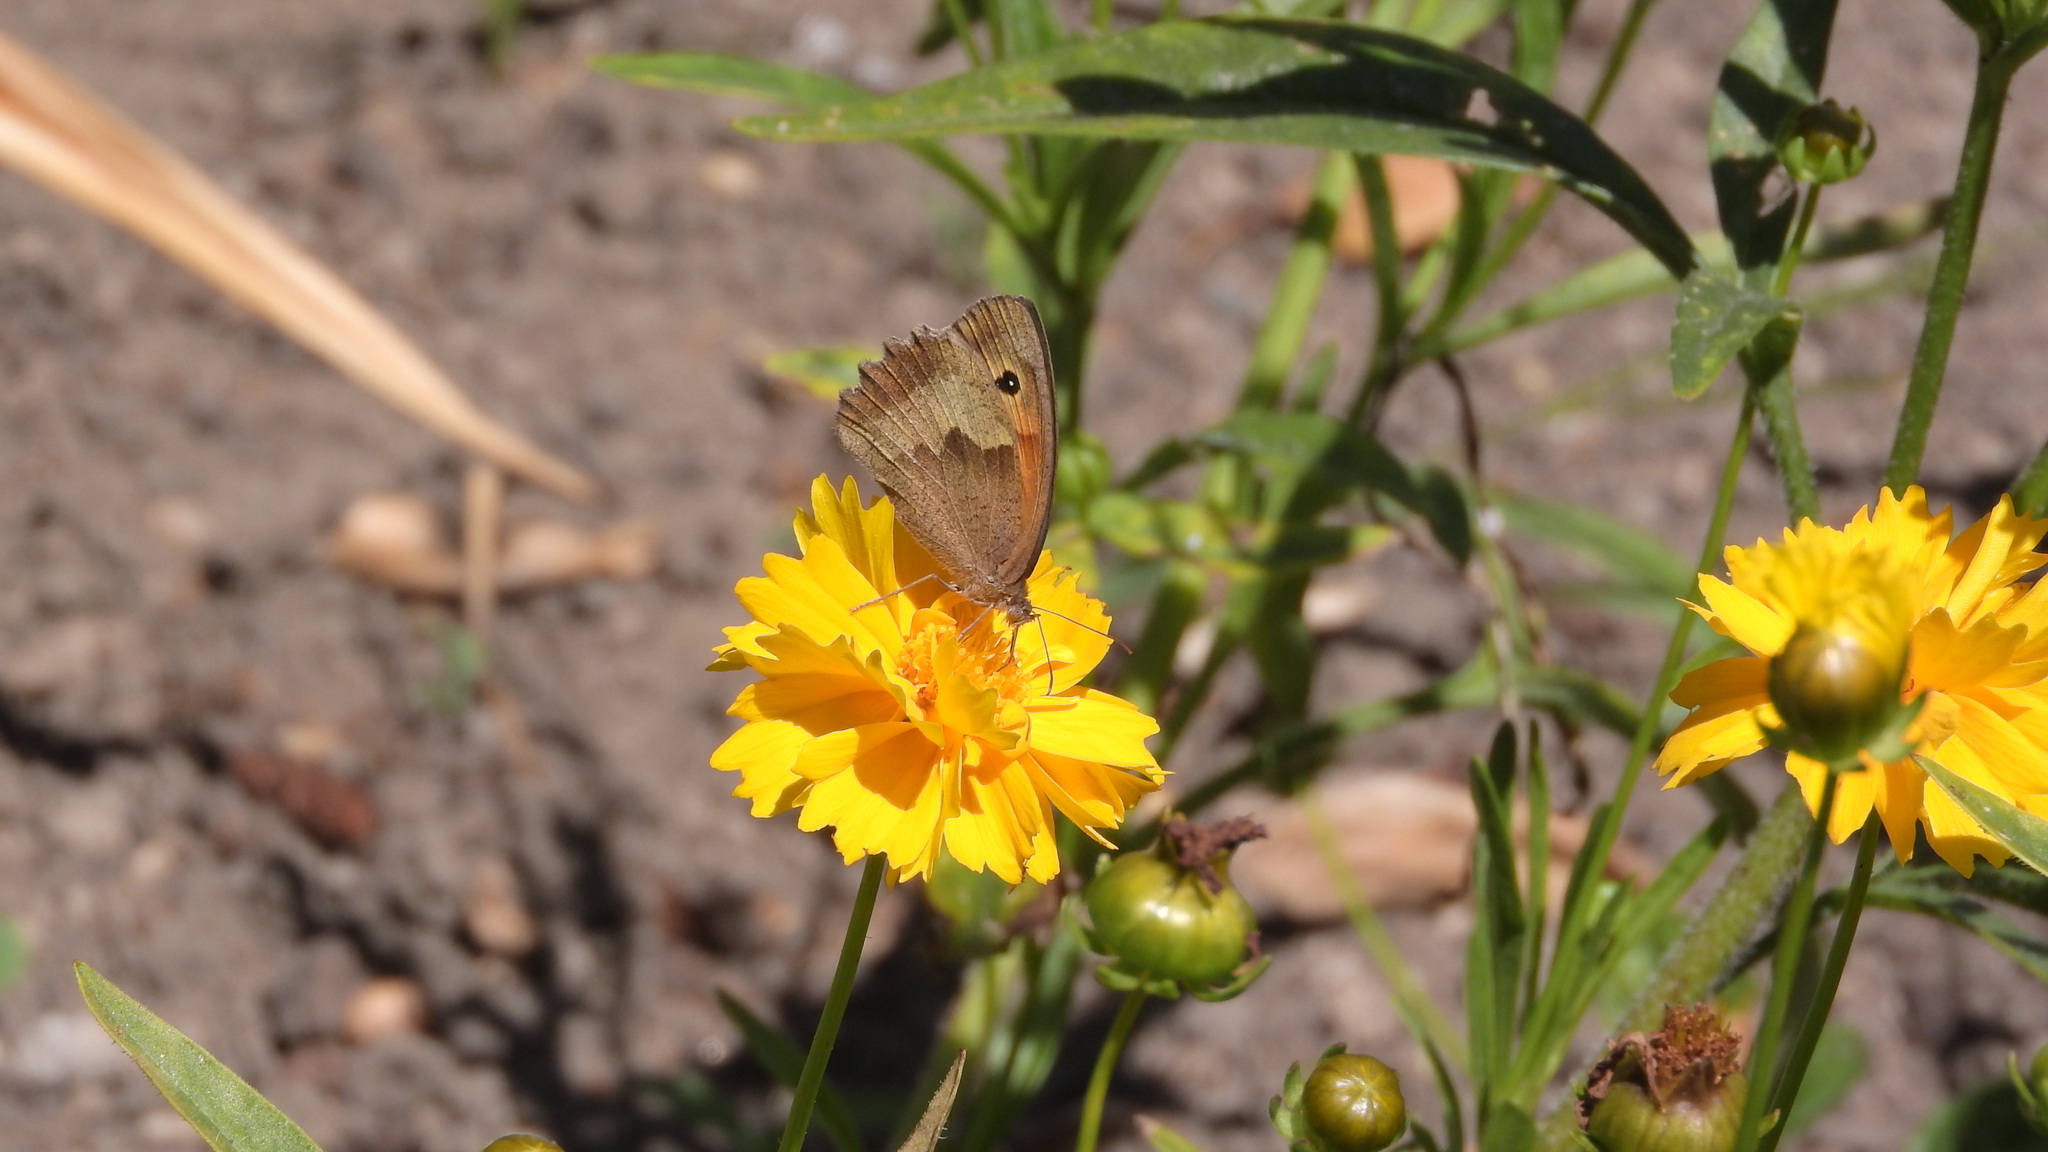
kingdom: Animalia
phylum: Arthropoda
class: Insecta
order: Lepidoptera
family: Nymphalidae
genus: Maniola
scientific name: Maniola jurtina
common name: Meadow brown
